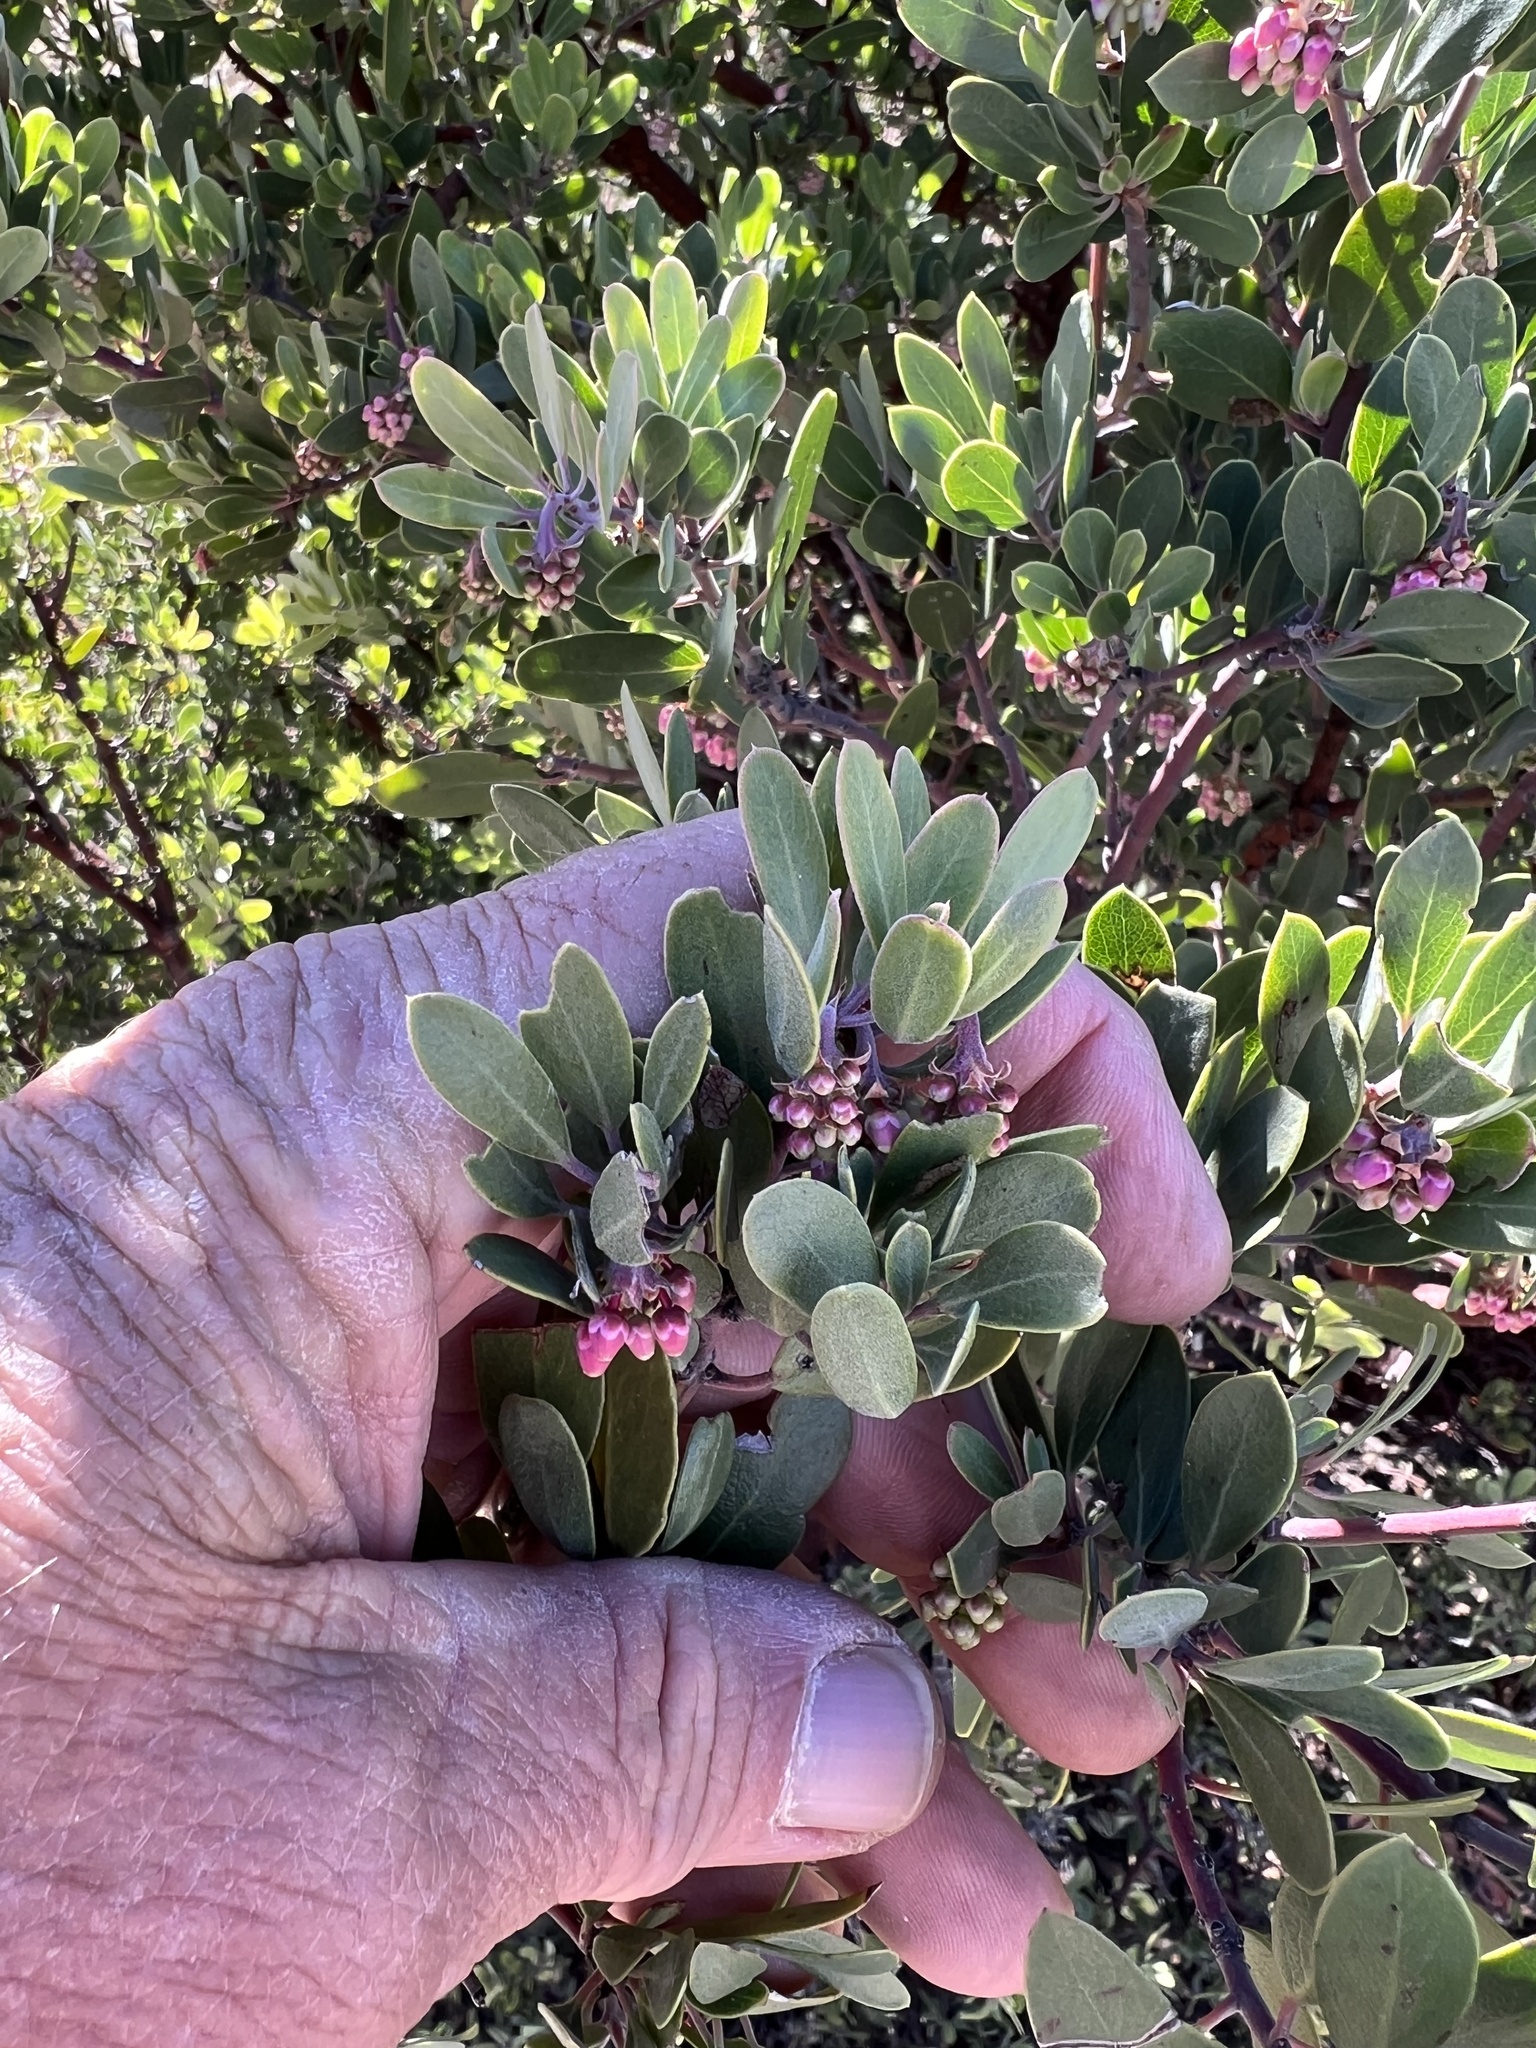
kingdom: Plantae
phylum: Tracheophyta
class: Magnoliopsida
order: Ericales
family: Ericaceae
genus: Arctostaphylos
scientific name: Arctostaphylos pungens
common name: Mexican manzanita
